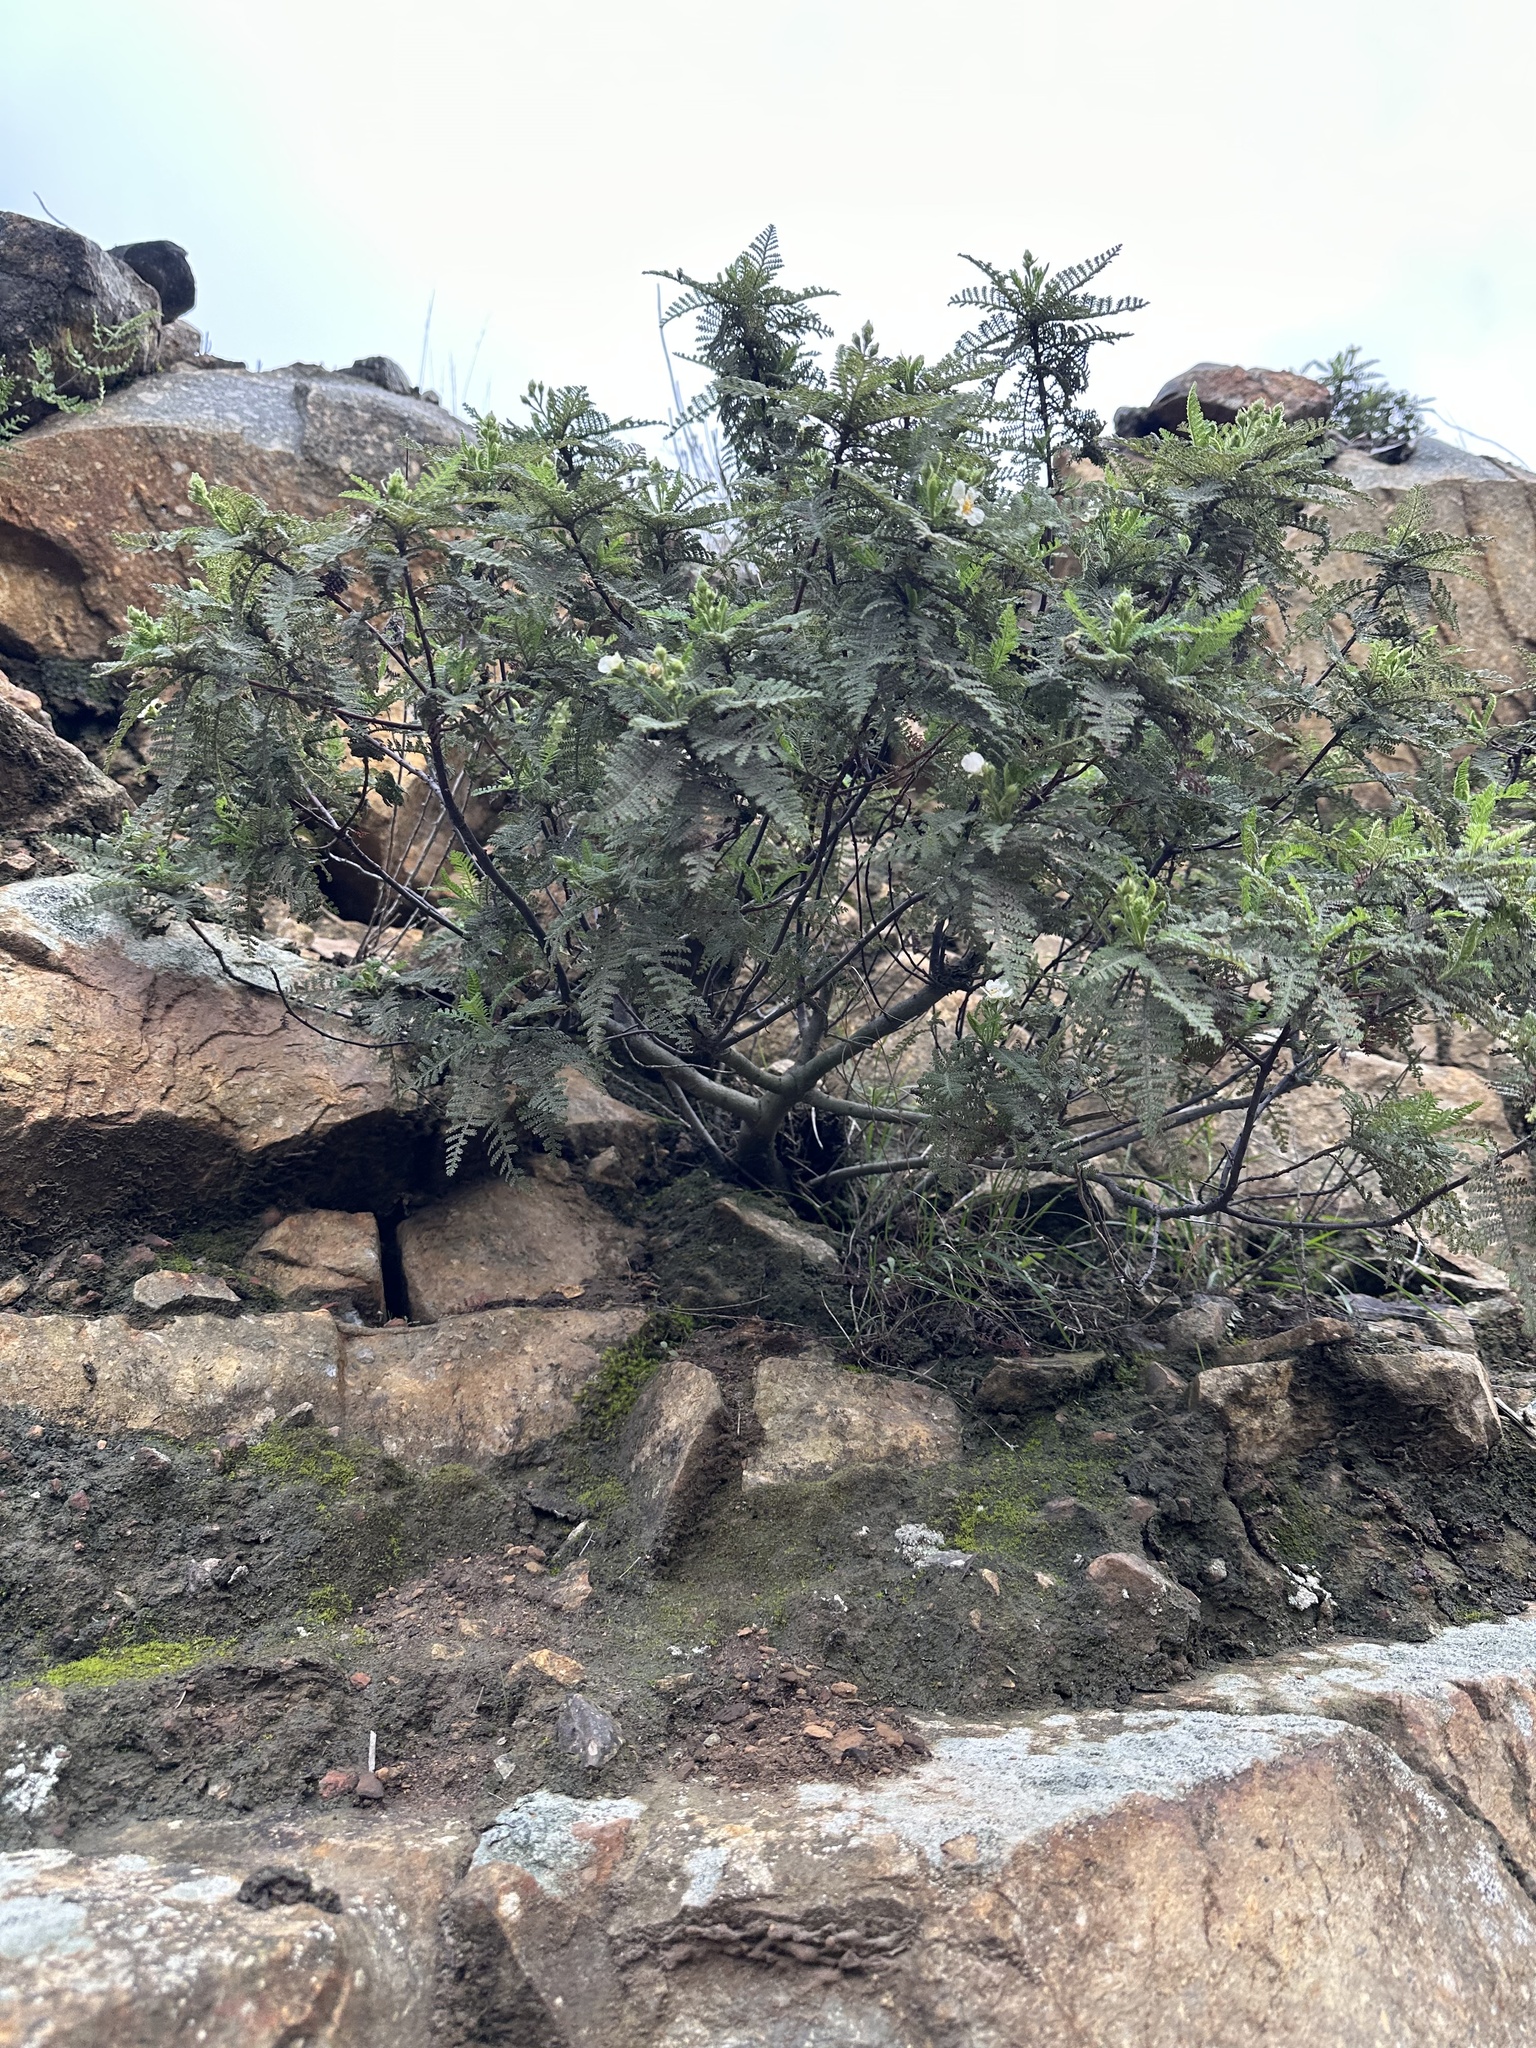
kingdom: Plantae
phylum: Tracheophyta
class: Magnoliopsida
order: Rosales
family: Rosaceae
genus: Chamaebatia
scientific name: Chamaebatia australis
